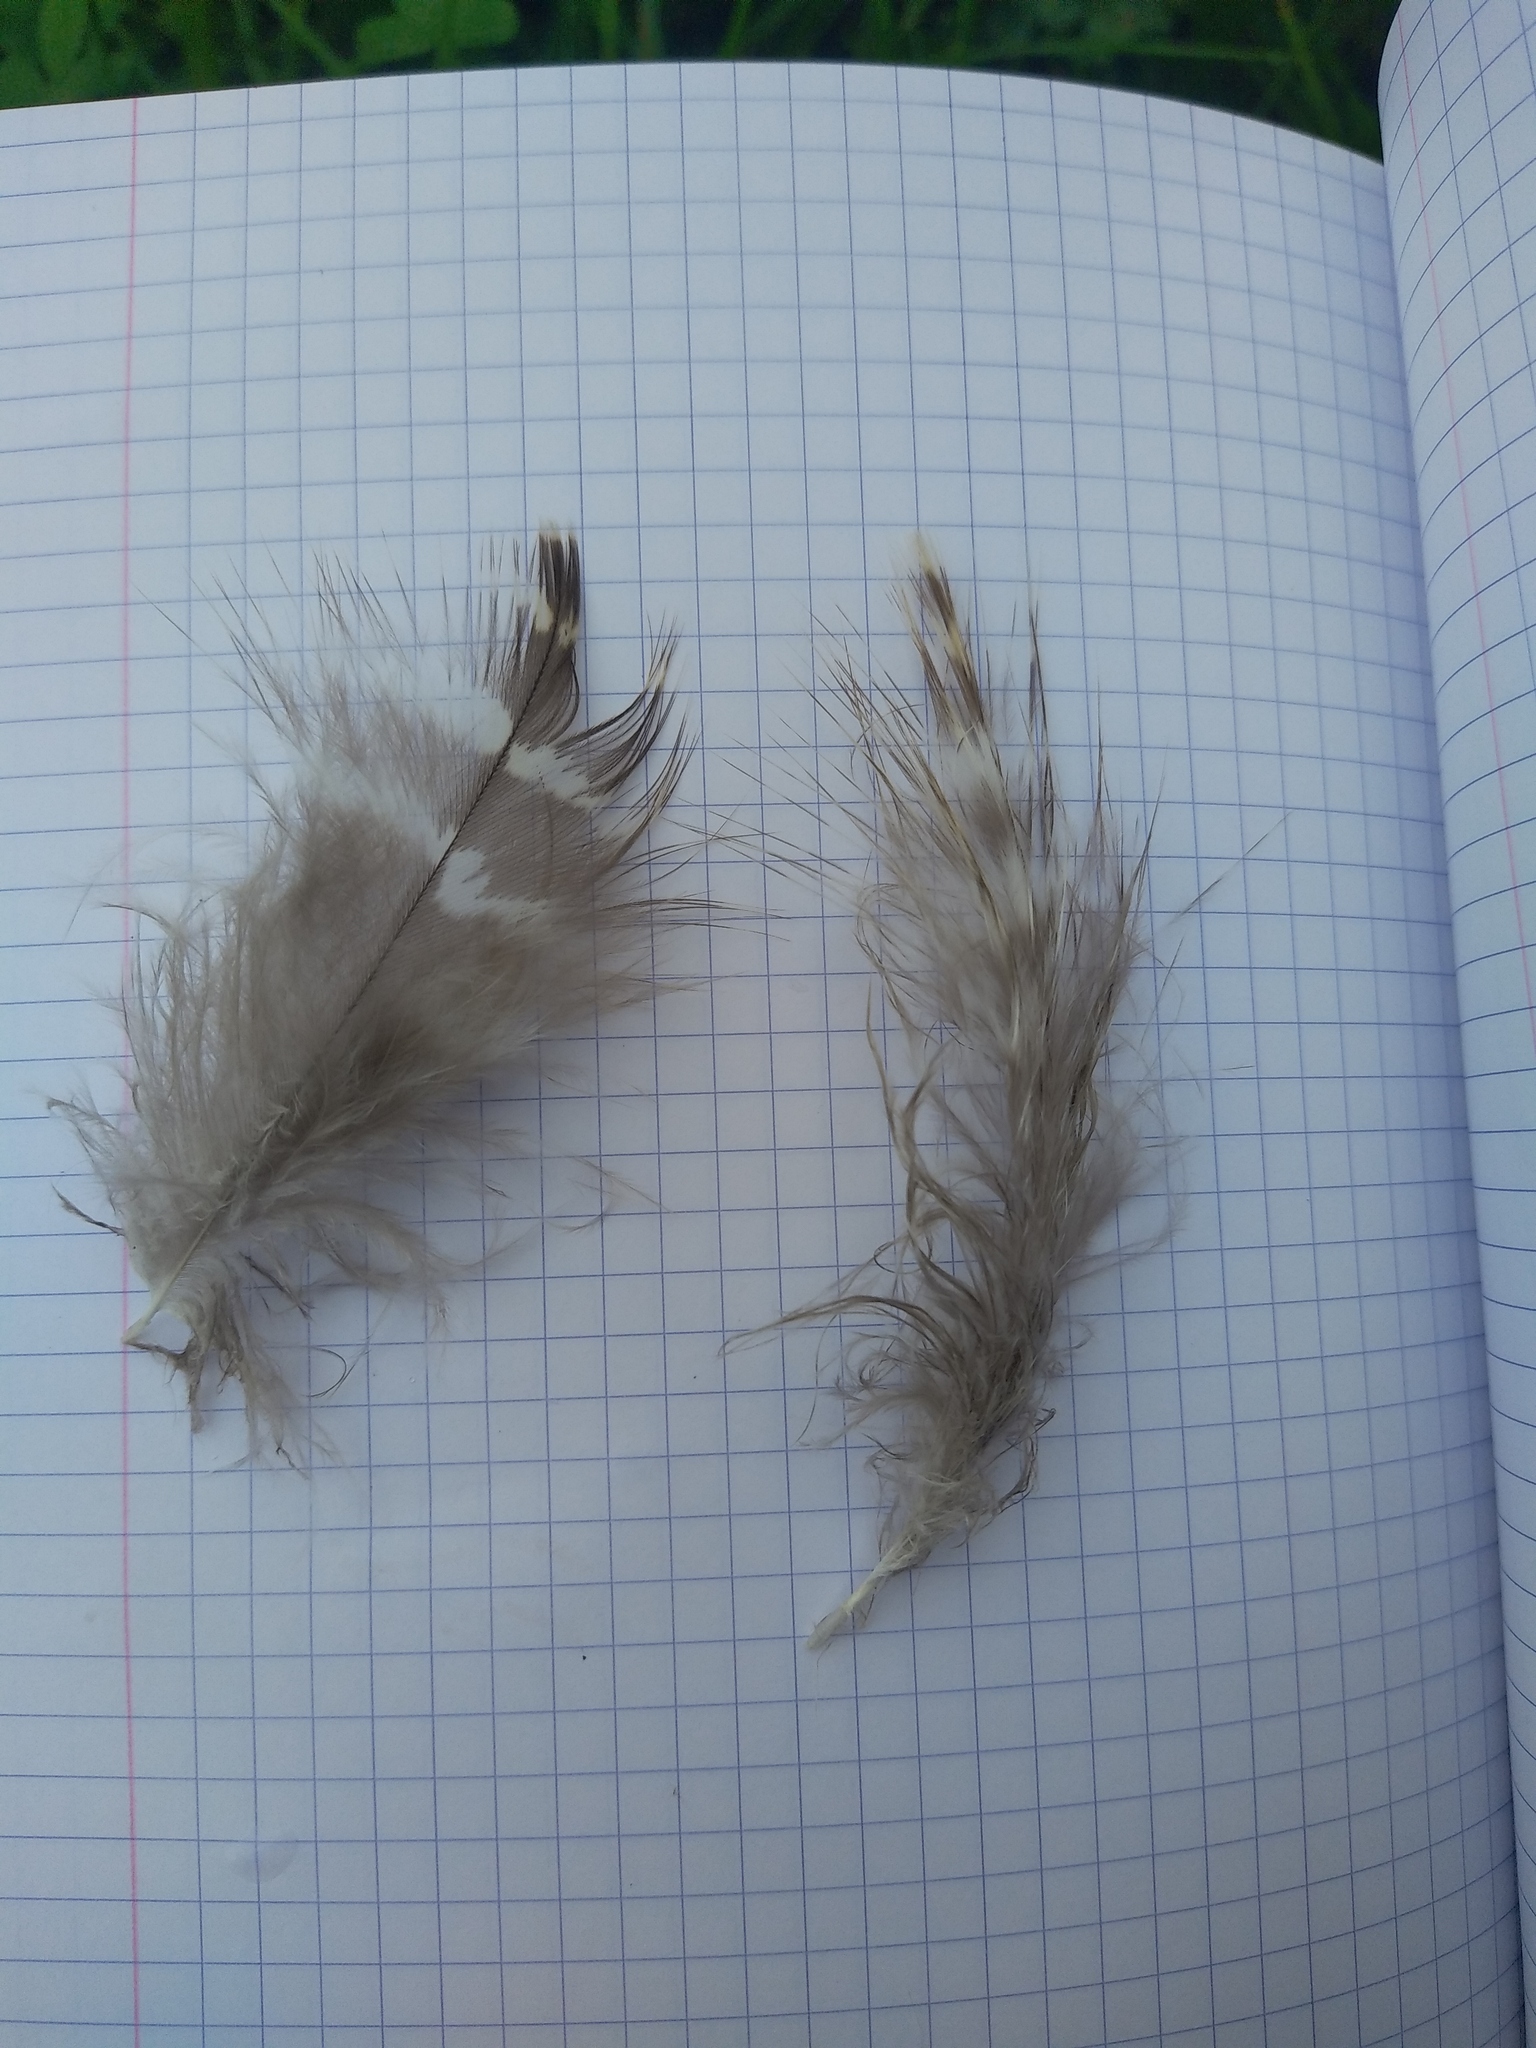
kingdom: Animalia
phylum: Chordata
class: Aves
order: Accipitriformes
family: Accipitridae
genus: Buteo
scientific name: Buteo buteo
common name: Common buzzard
